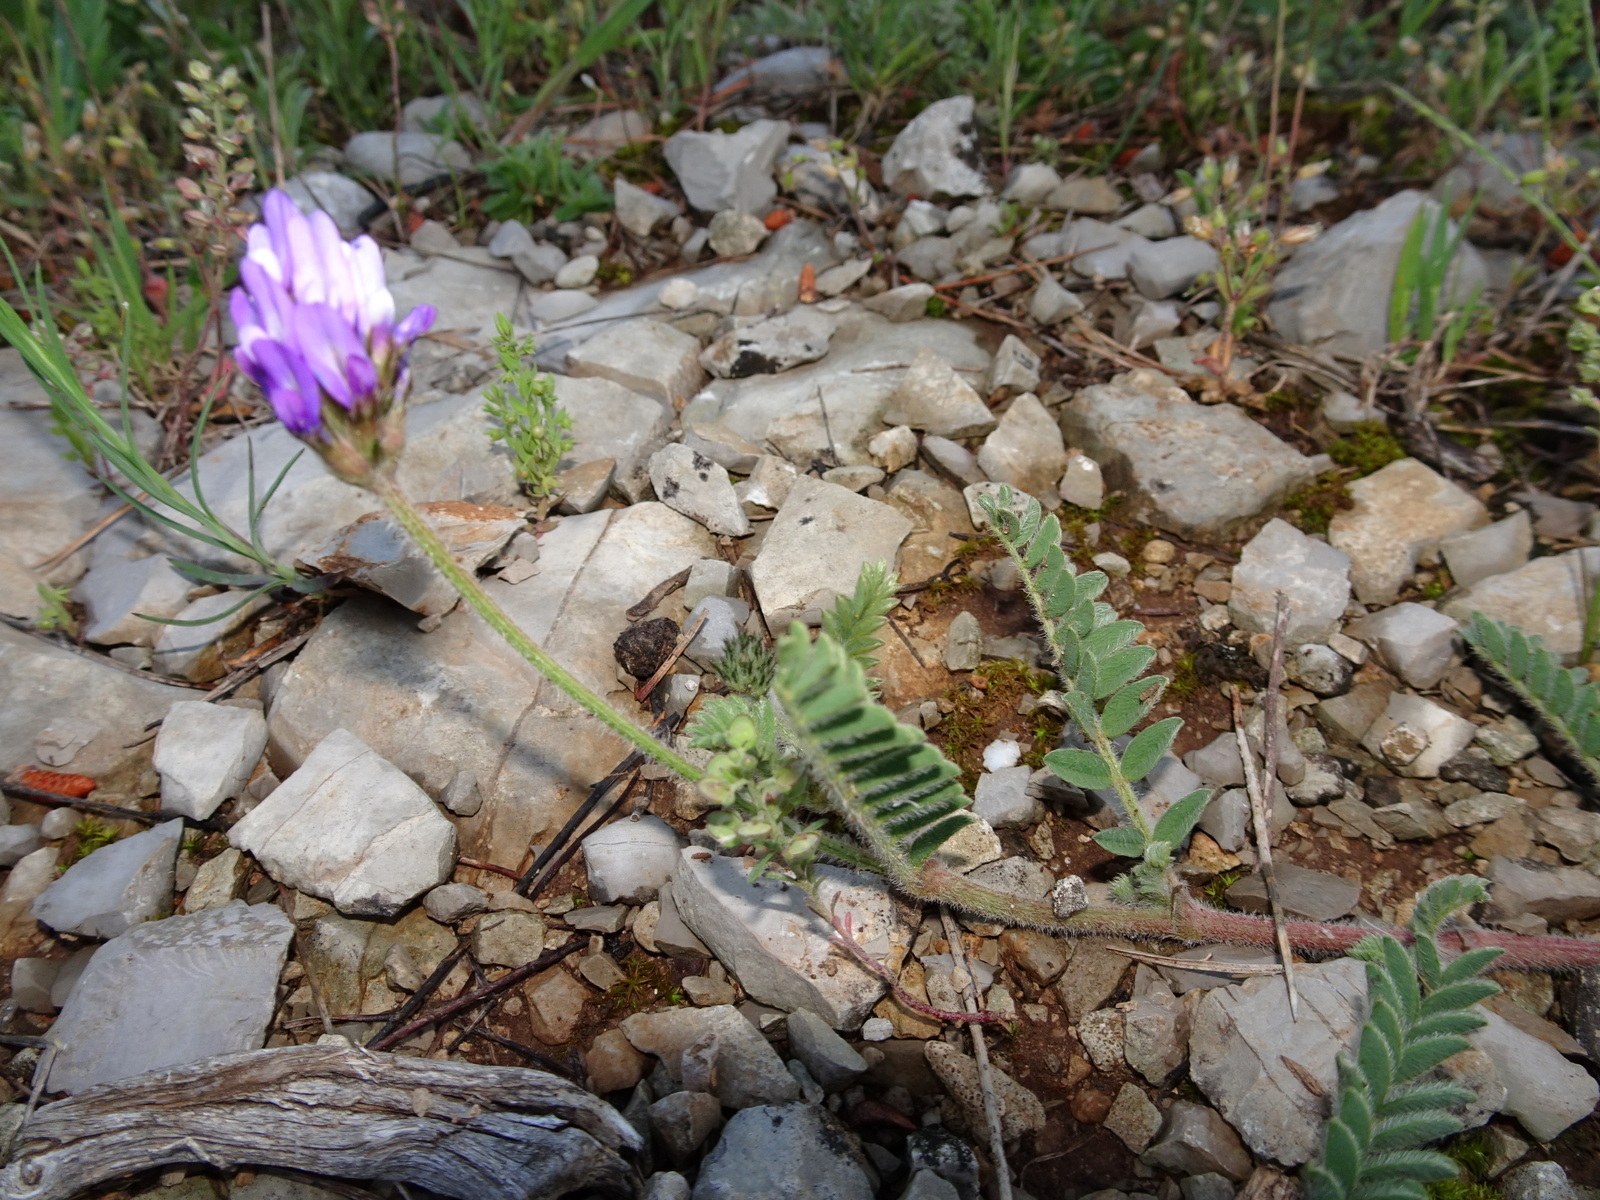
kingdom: Plantae
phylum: Tracheophyta
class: Magnoliopsida
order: Fabales
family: Fabaceae
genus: Astragalus
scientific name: Astragalus monspessulanus
